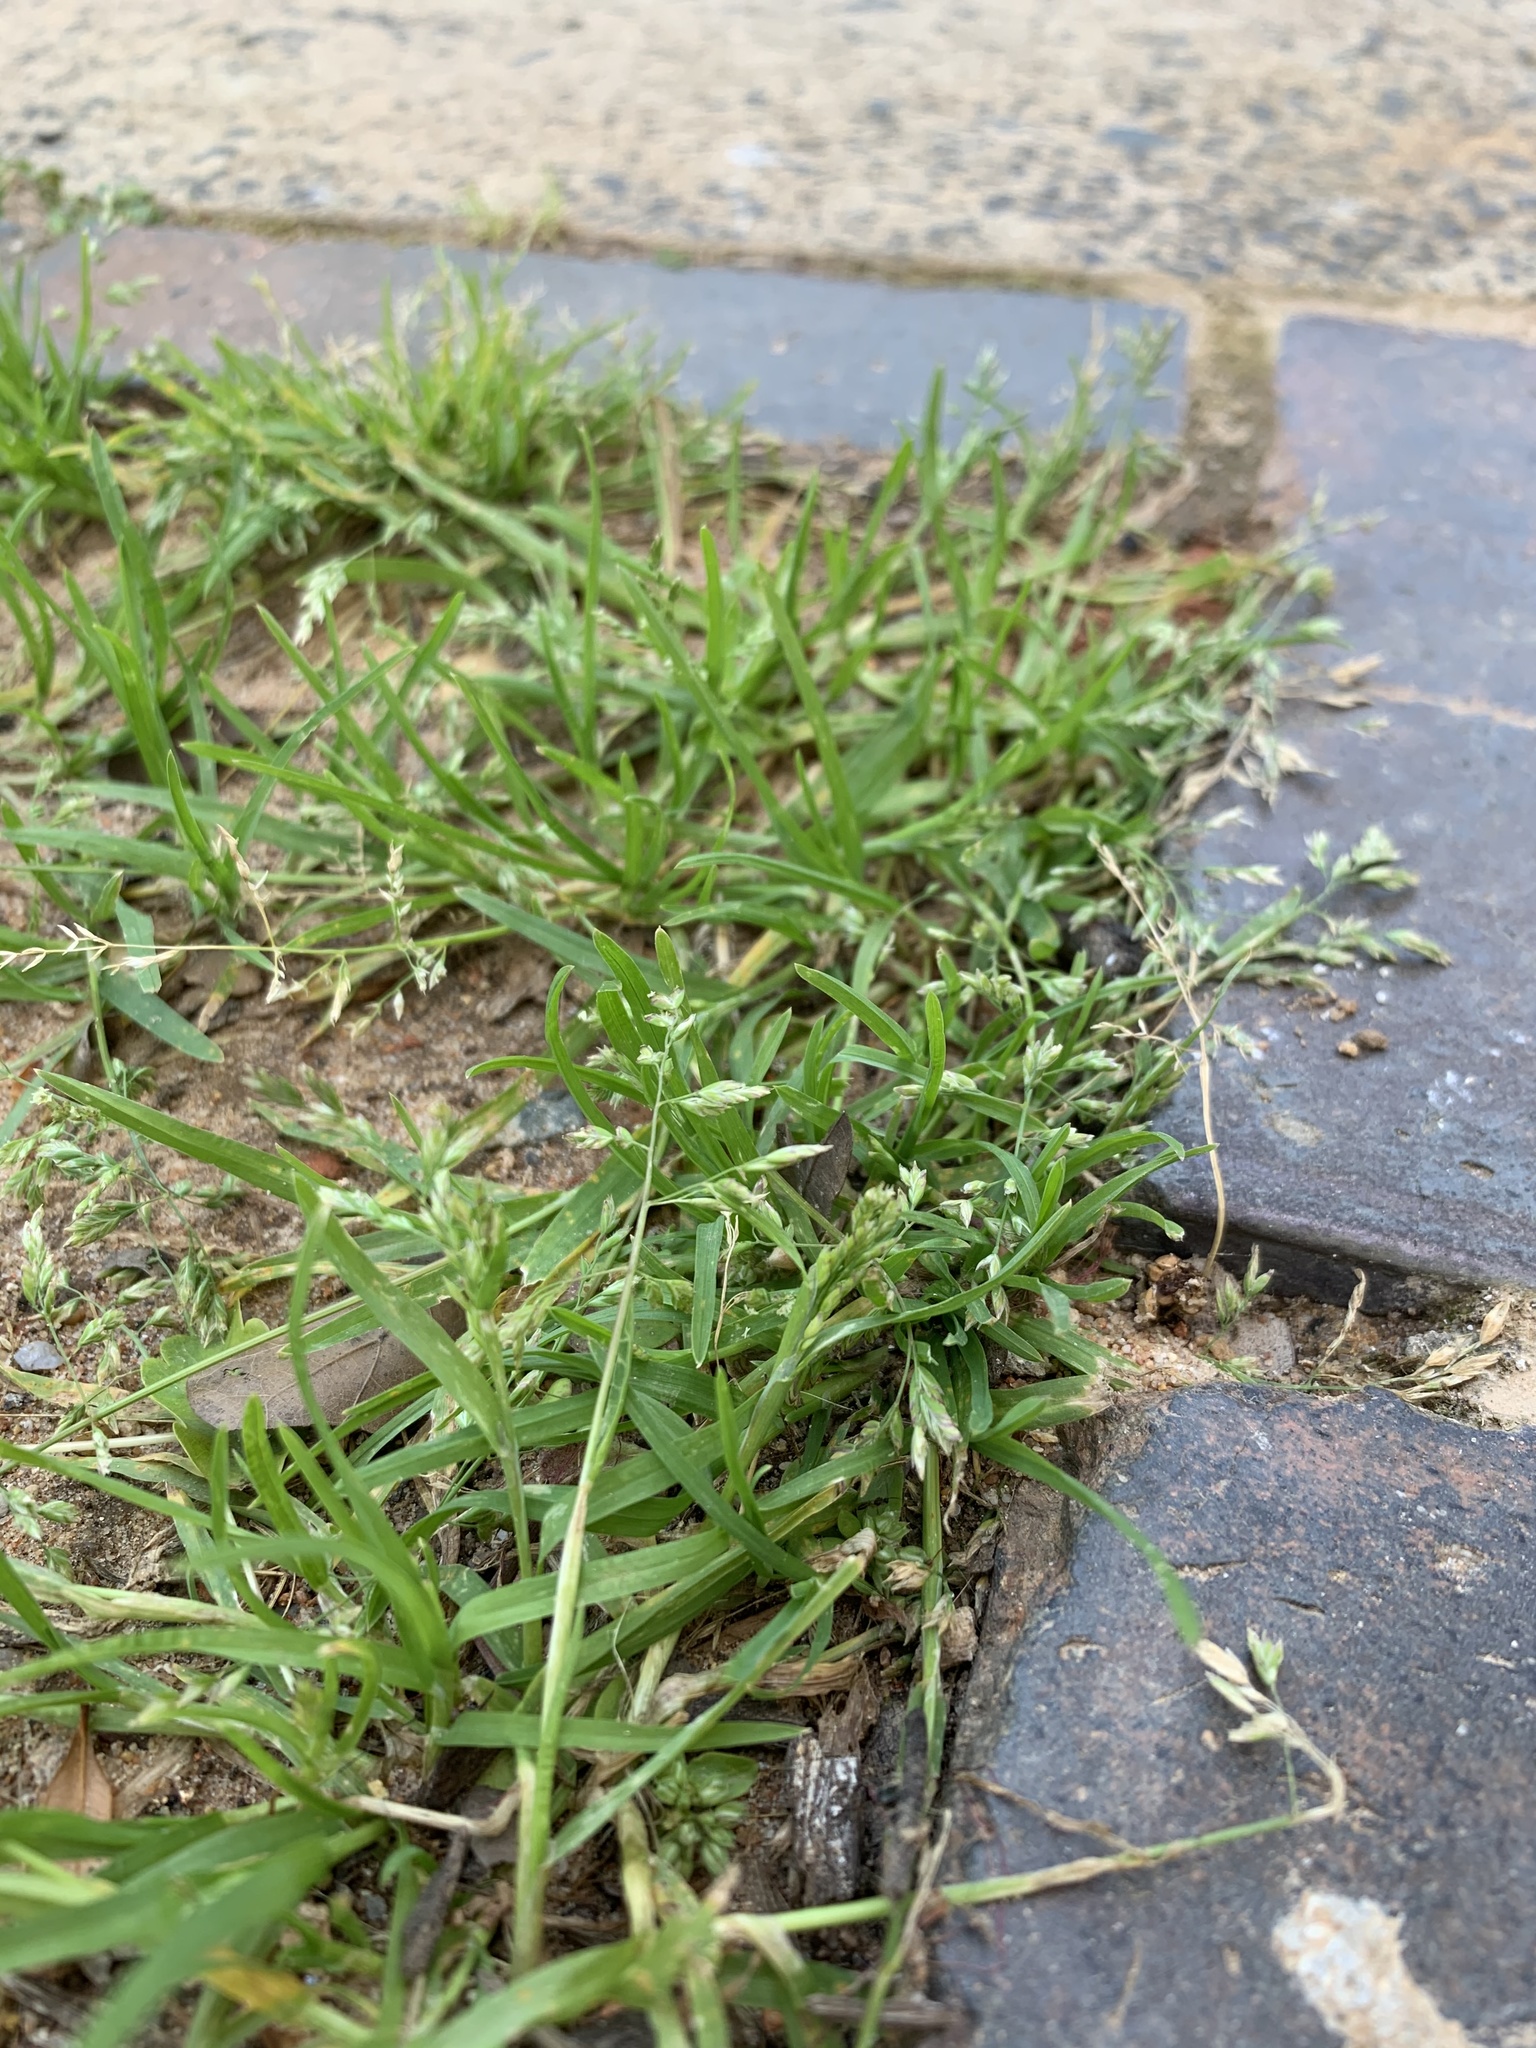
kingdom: Plantae
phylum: Tracheophyta
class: Liliopsida
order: Poales
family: Poaceae
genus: Poa
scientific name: Poa annua
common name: Annual bluegrass
